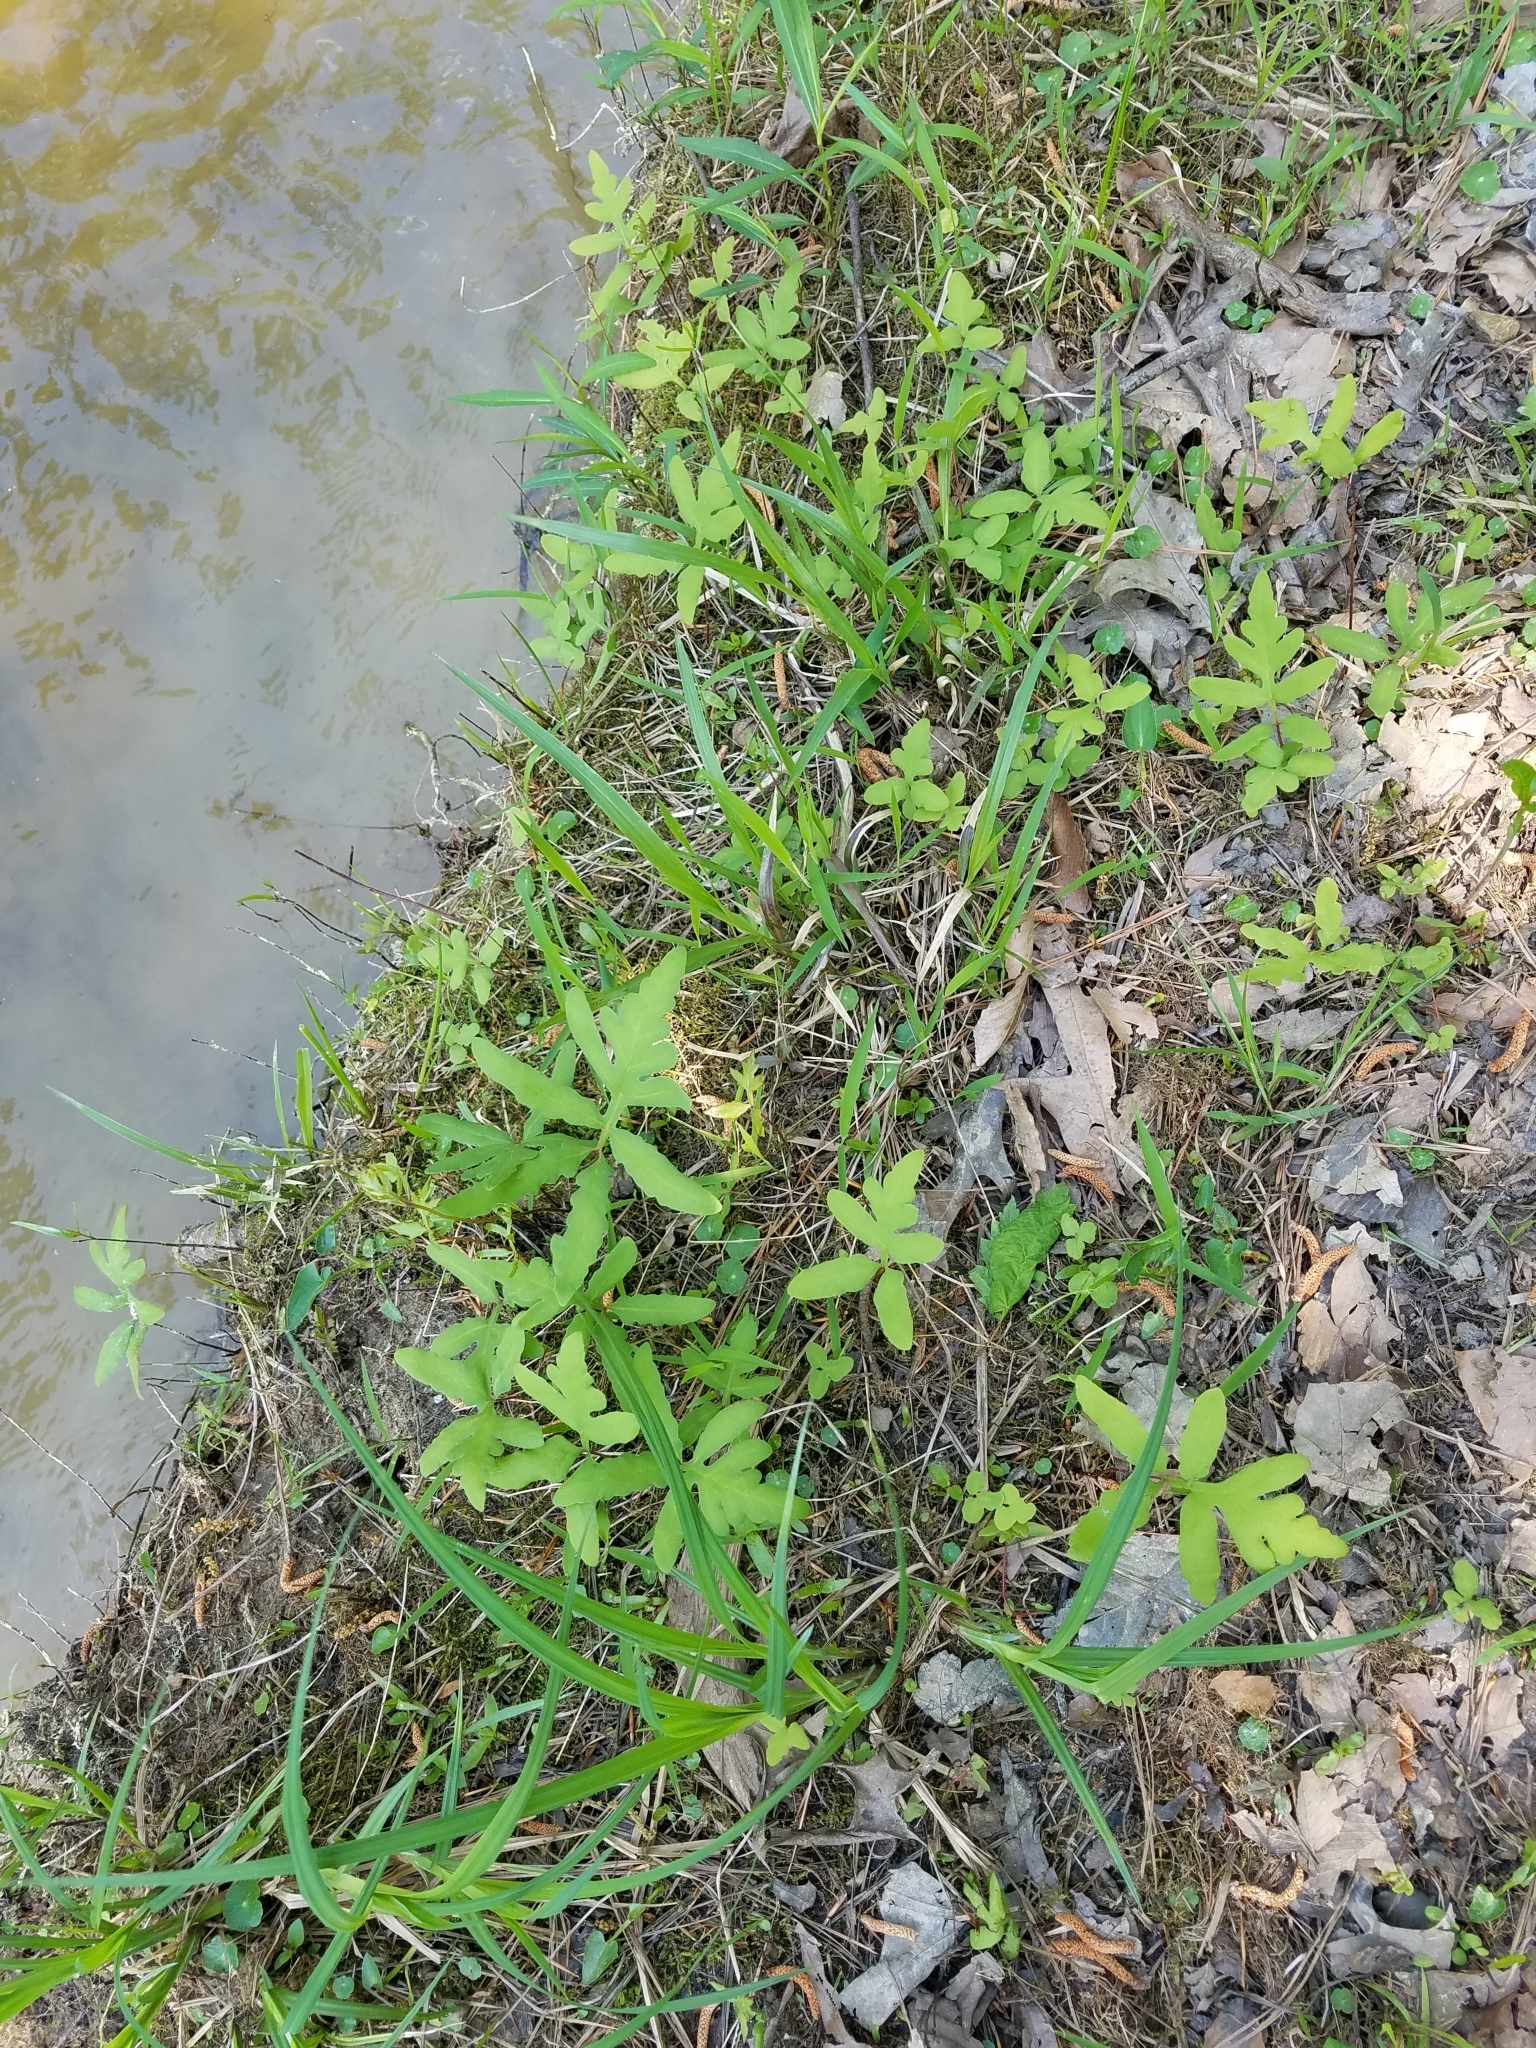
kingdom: Plantae
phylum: Tracheophyta
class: Polypodiopsida
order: Polypodiales
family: Onocleaceae
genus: Onoclea
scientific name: Onoclea sensibilis
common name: Sensitive fern
